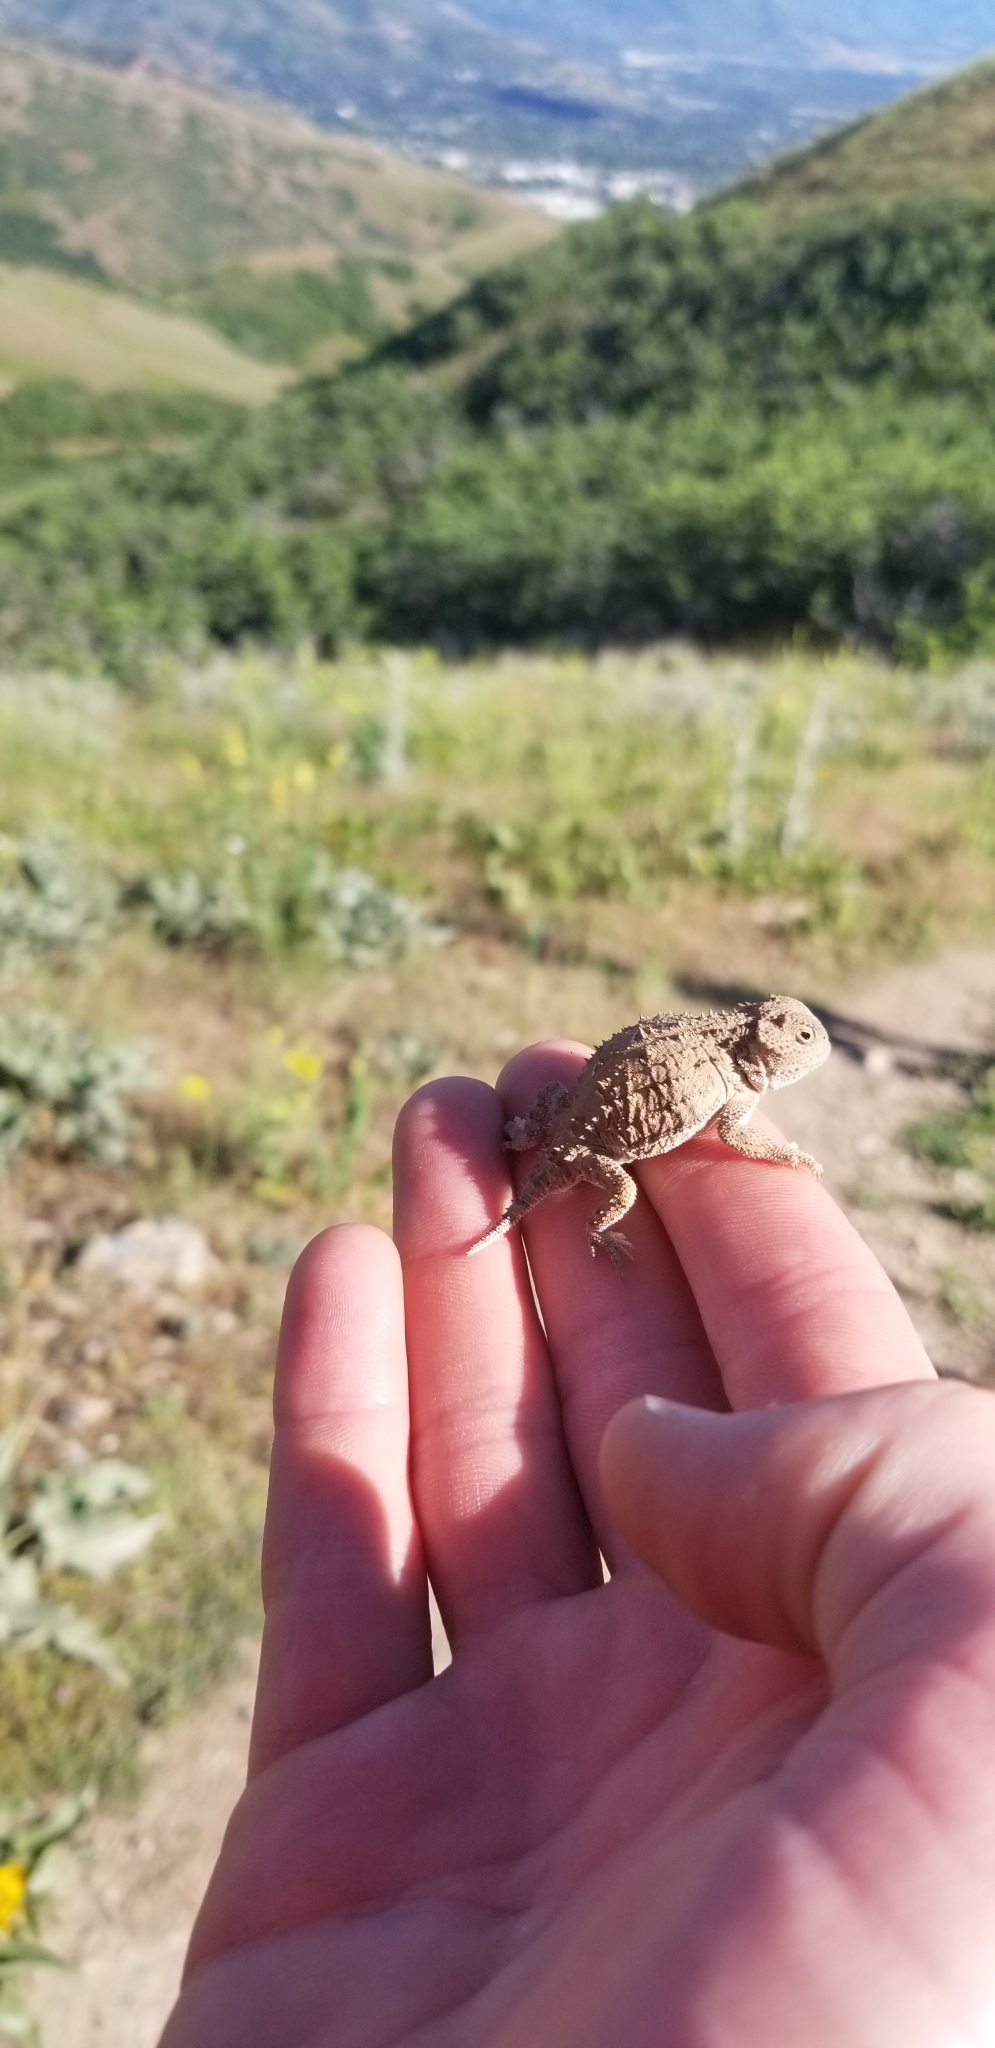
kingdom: Animalia
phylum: Chordata
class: Squamata
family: Phrynosomatidae
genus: Phrynosoma
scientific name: Phrynosoma hernandesi
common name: Greater short-horned lizard
